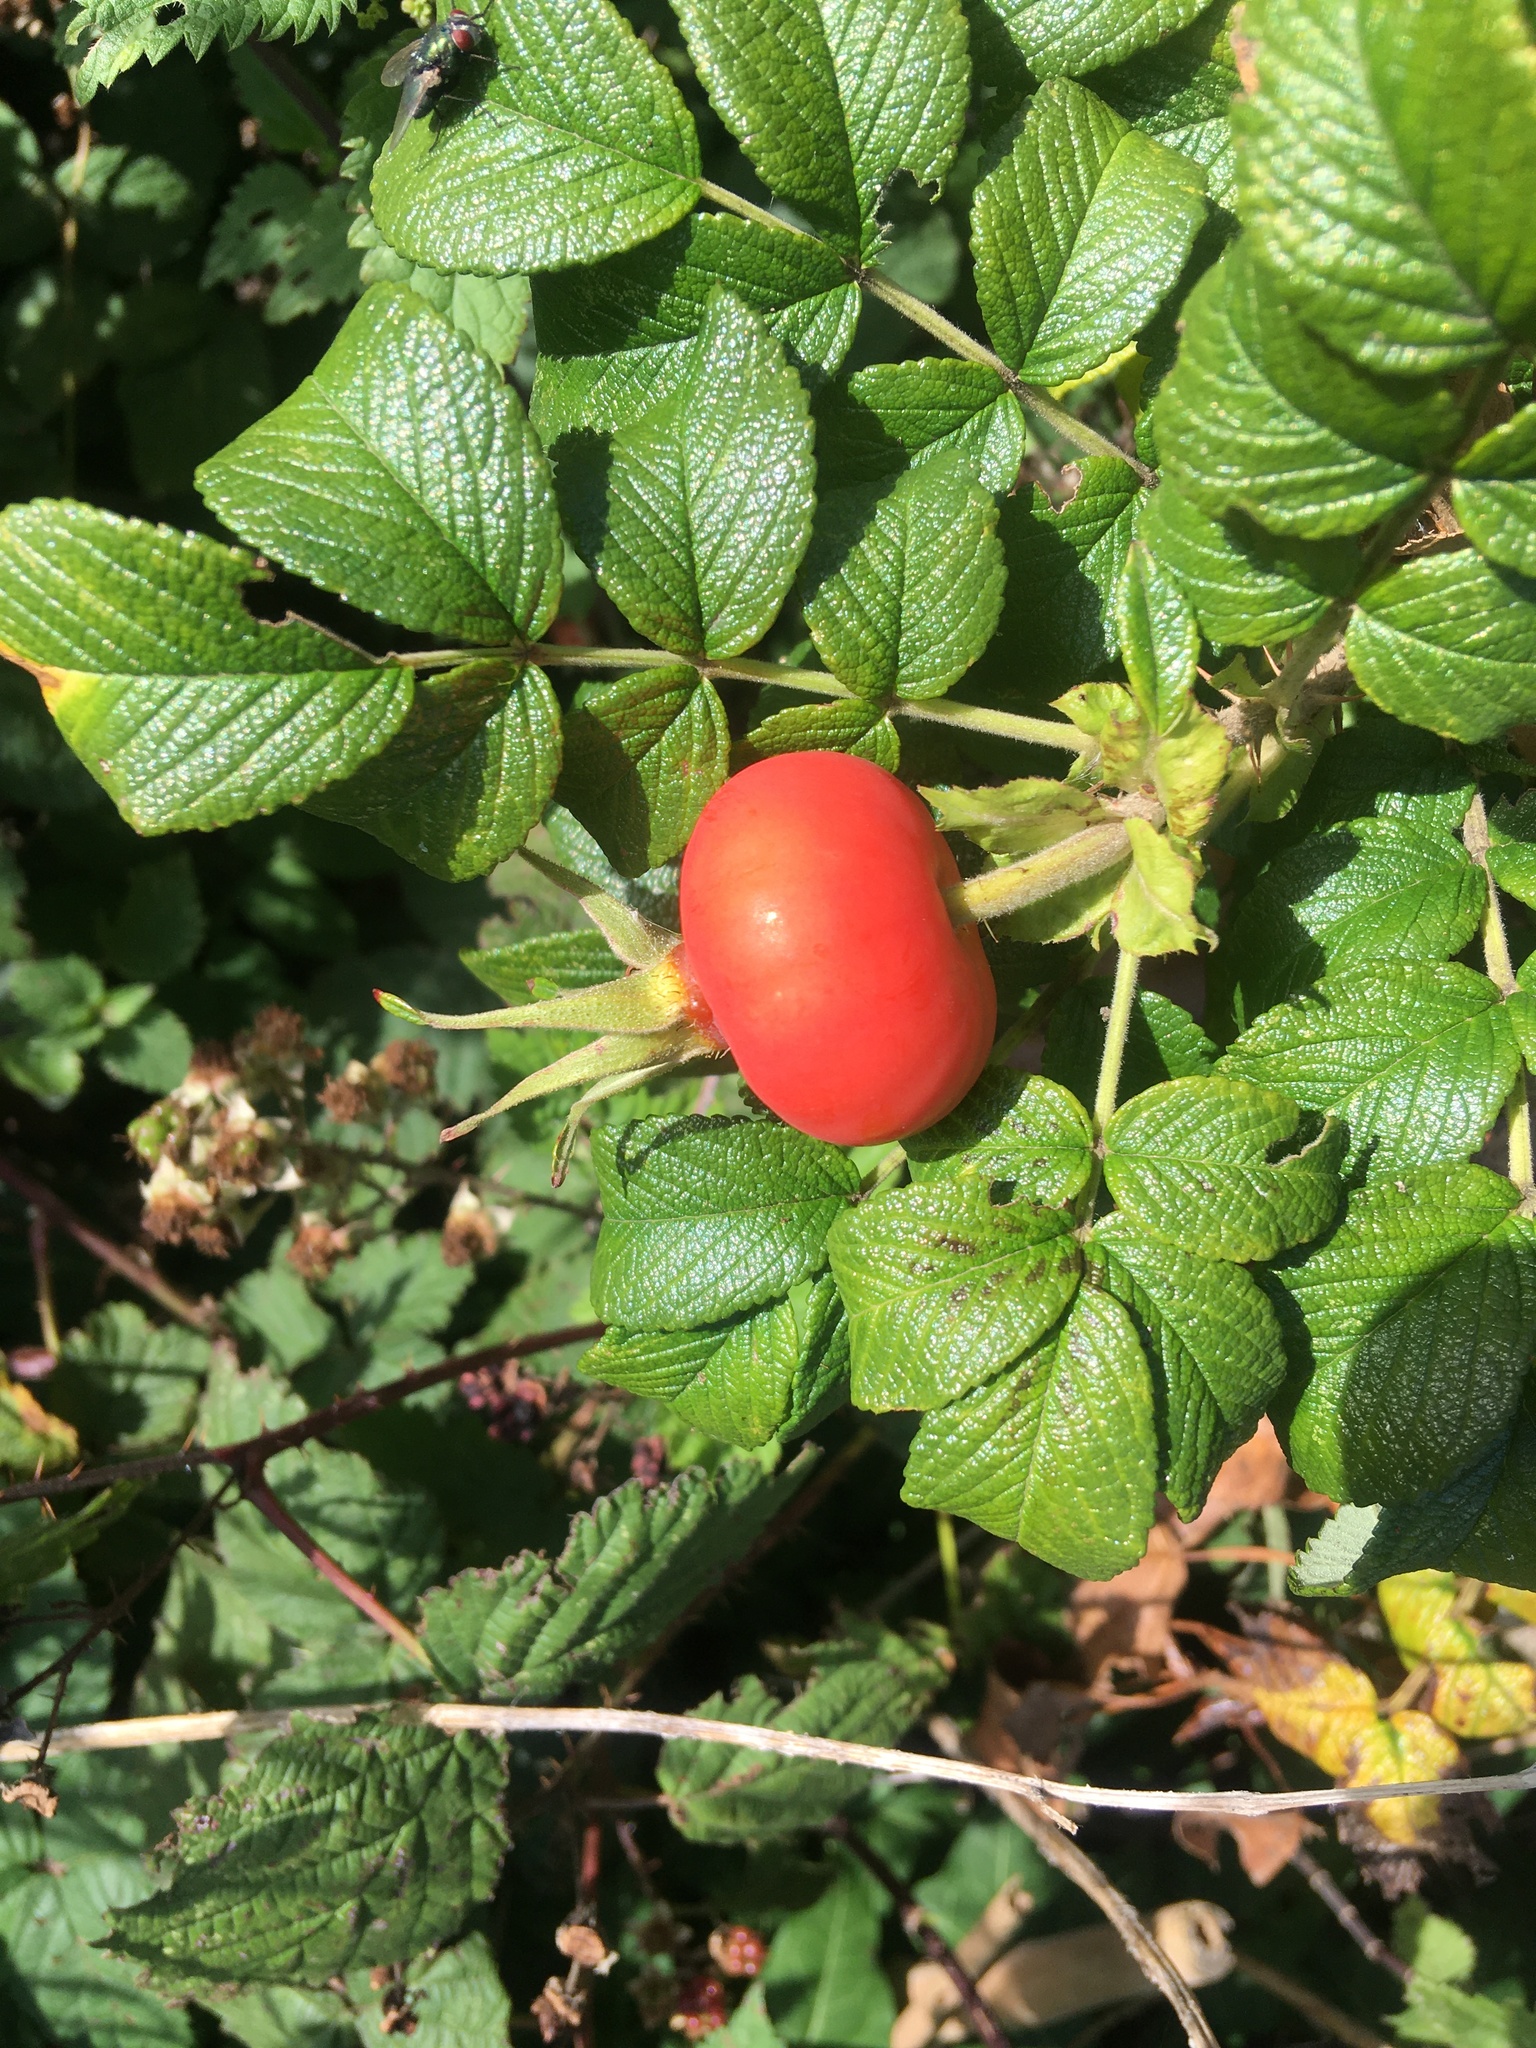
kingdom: Plantae
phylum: Tracheophyta
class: Magnoliopsida
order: Rosales
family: Rosaceae
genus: Rosa
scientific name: Rosa rugosa
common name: Japanese rose
